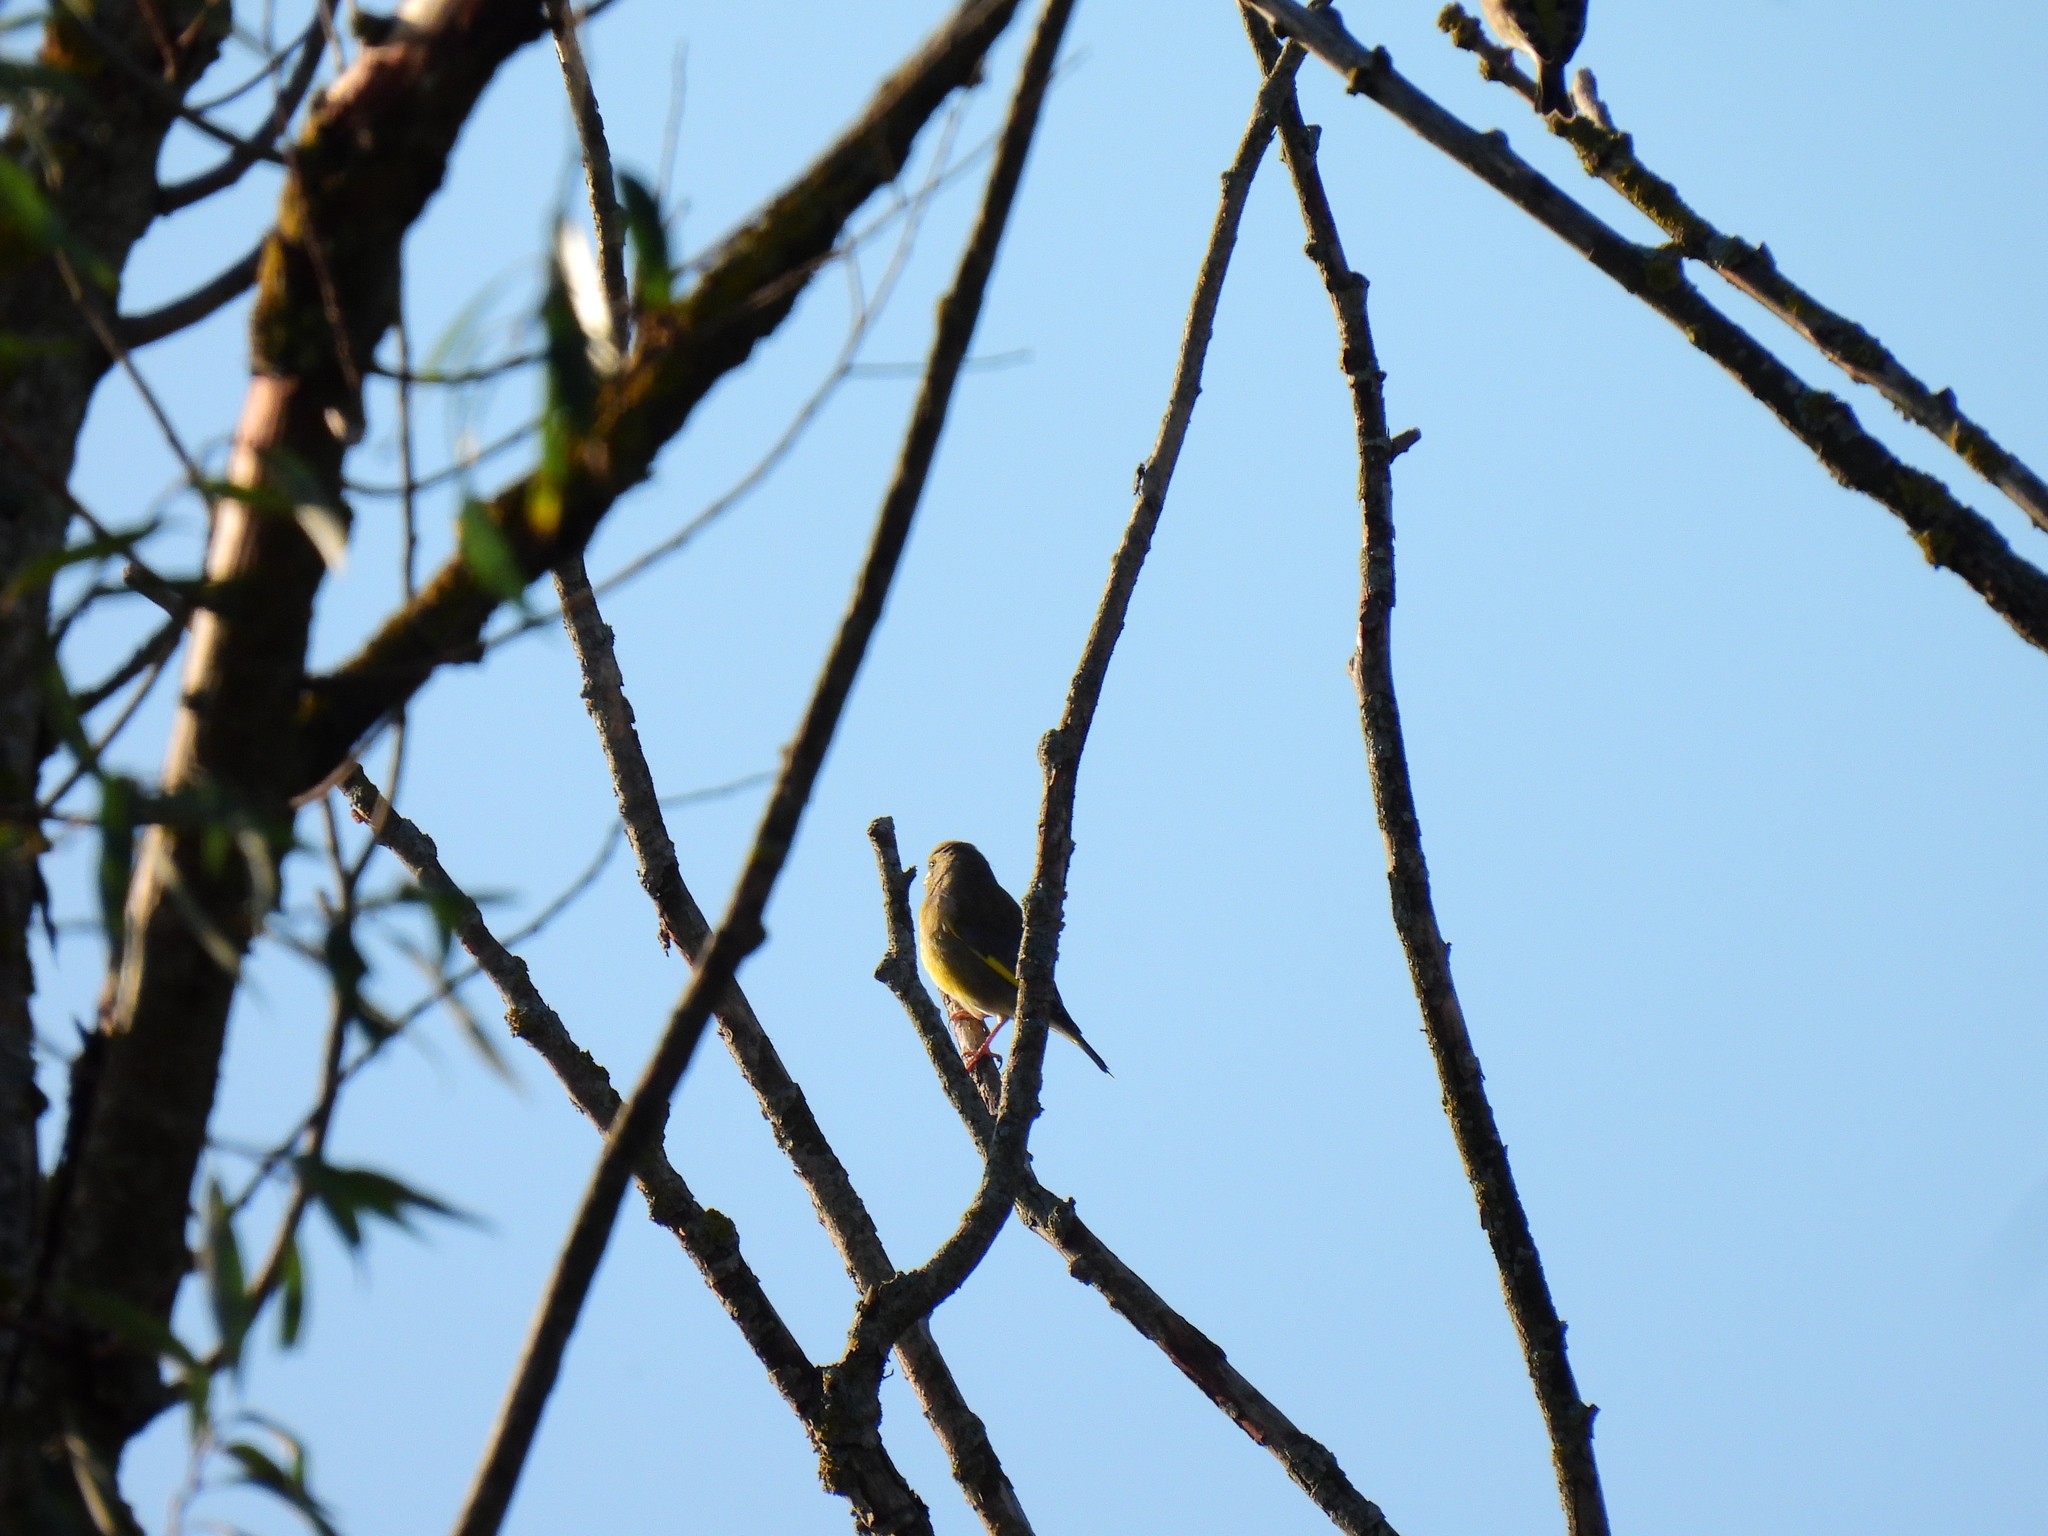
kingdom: Plantae
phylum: Tracheophyta
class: Liliopsida
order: Poales
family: Poaceae
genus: Chloris
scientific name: Chloris chloris
